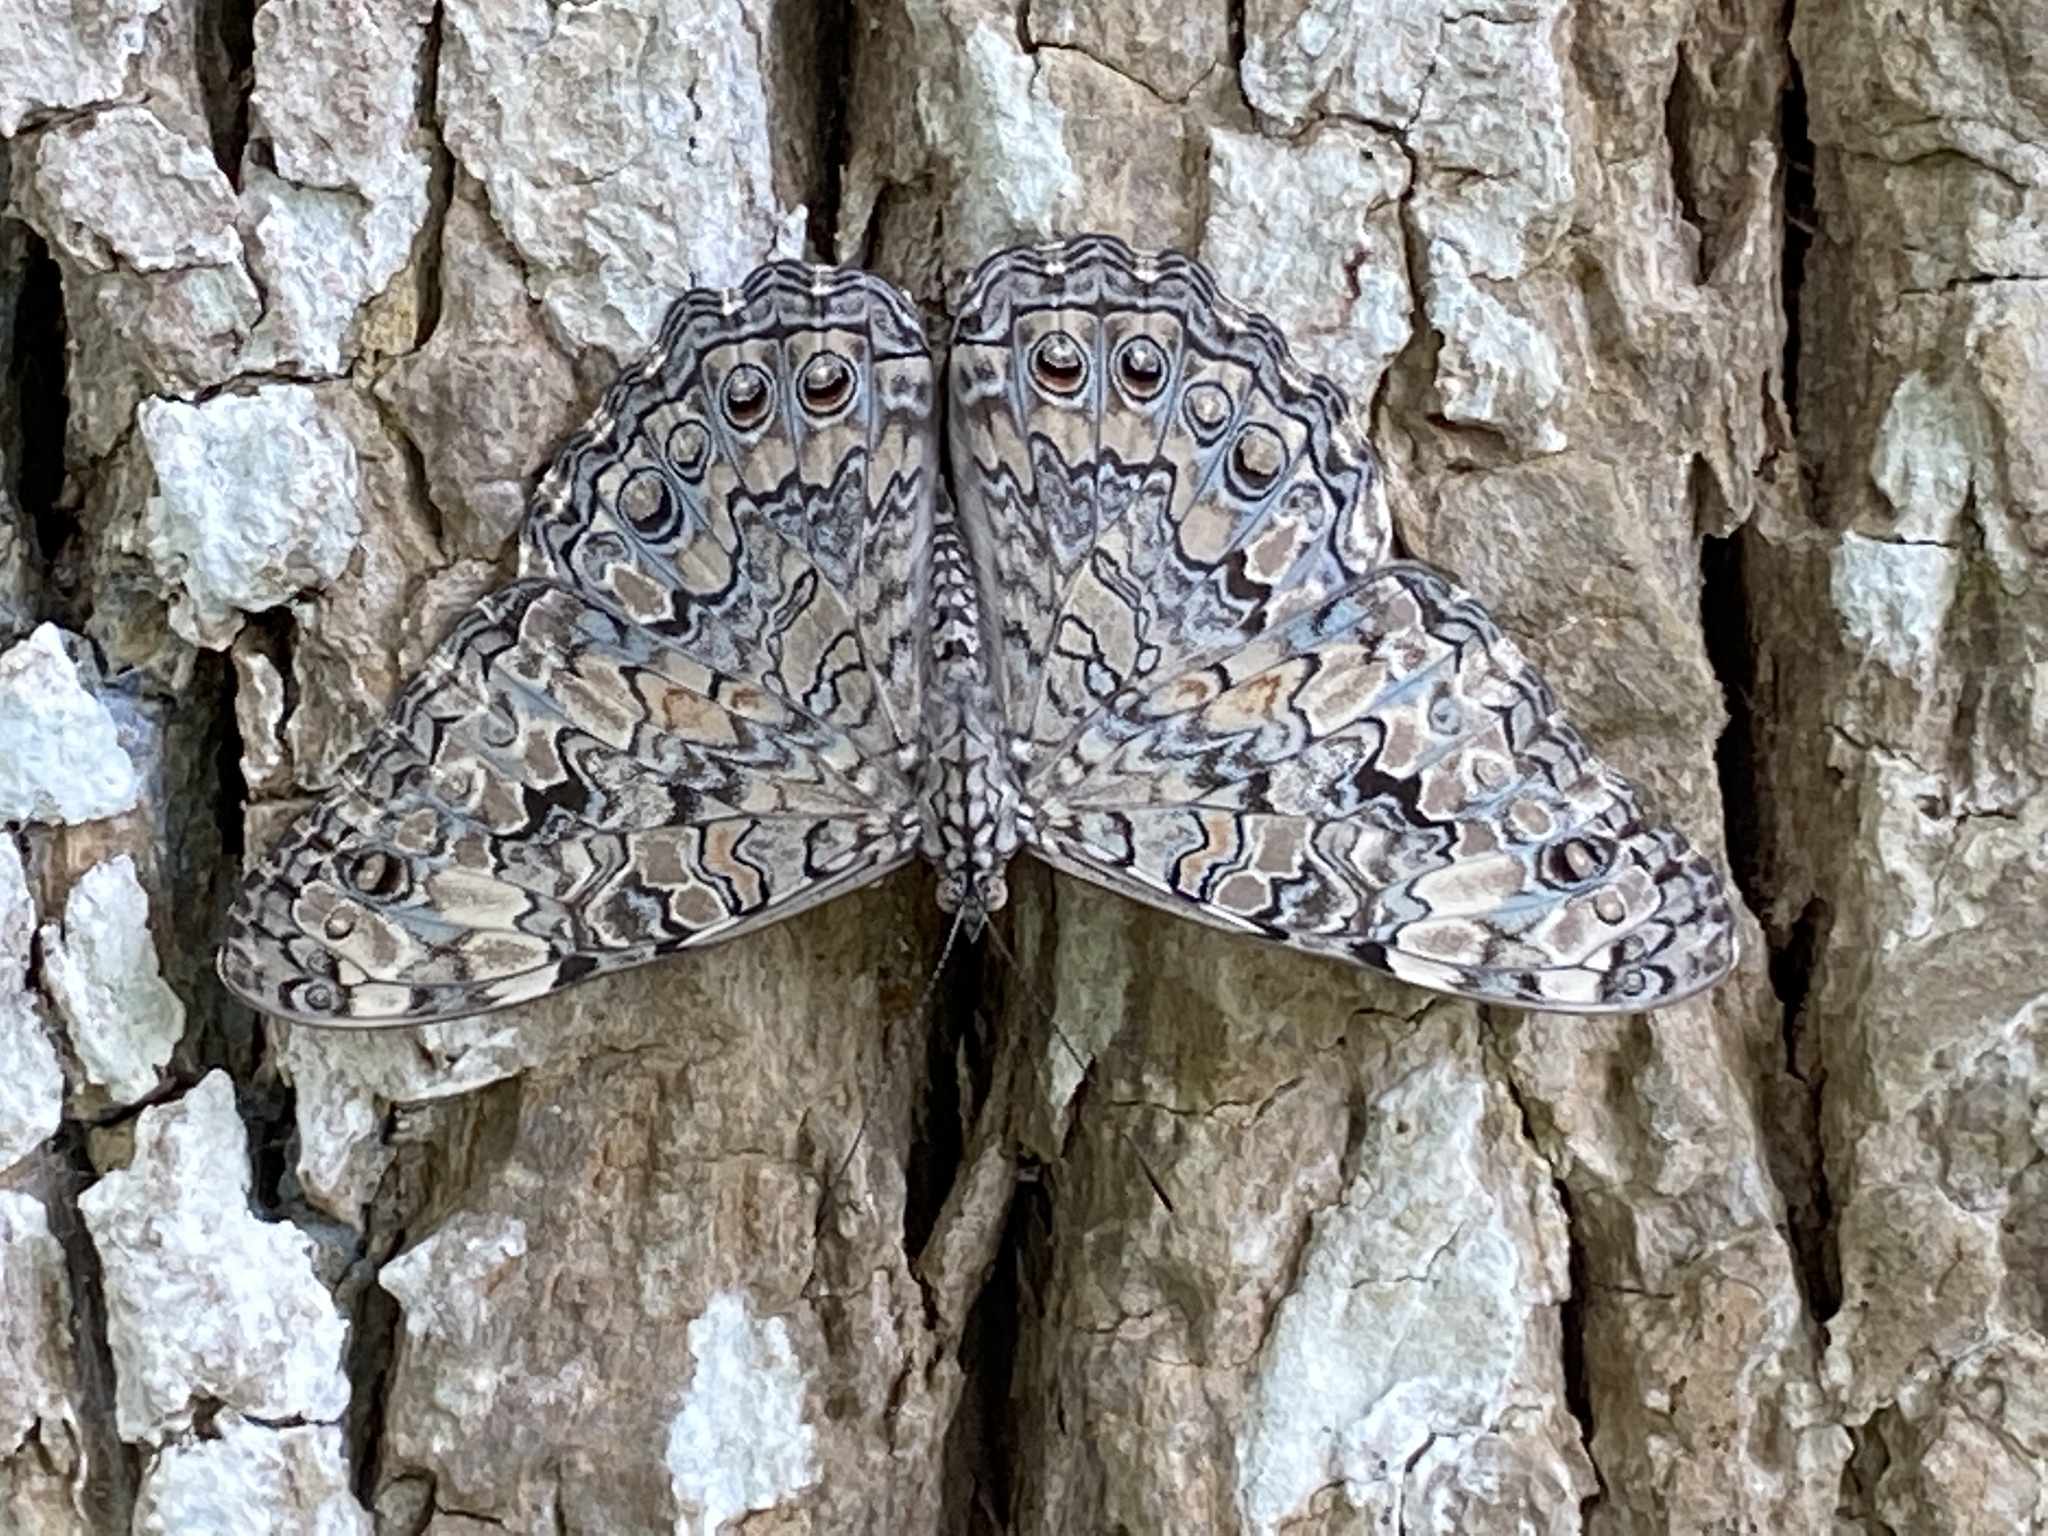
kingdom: Animalia
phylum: Arthropoda
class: Insecta
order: Lepidoptera
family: Nymphalidae
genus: Hamadryas
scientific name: Hamadryas februa
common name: Gray cracker
